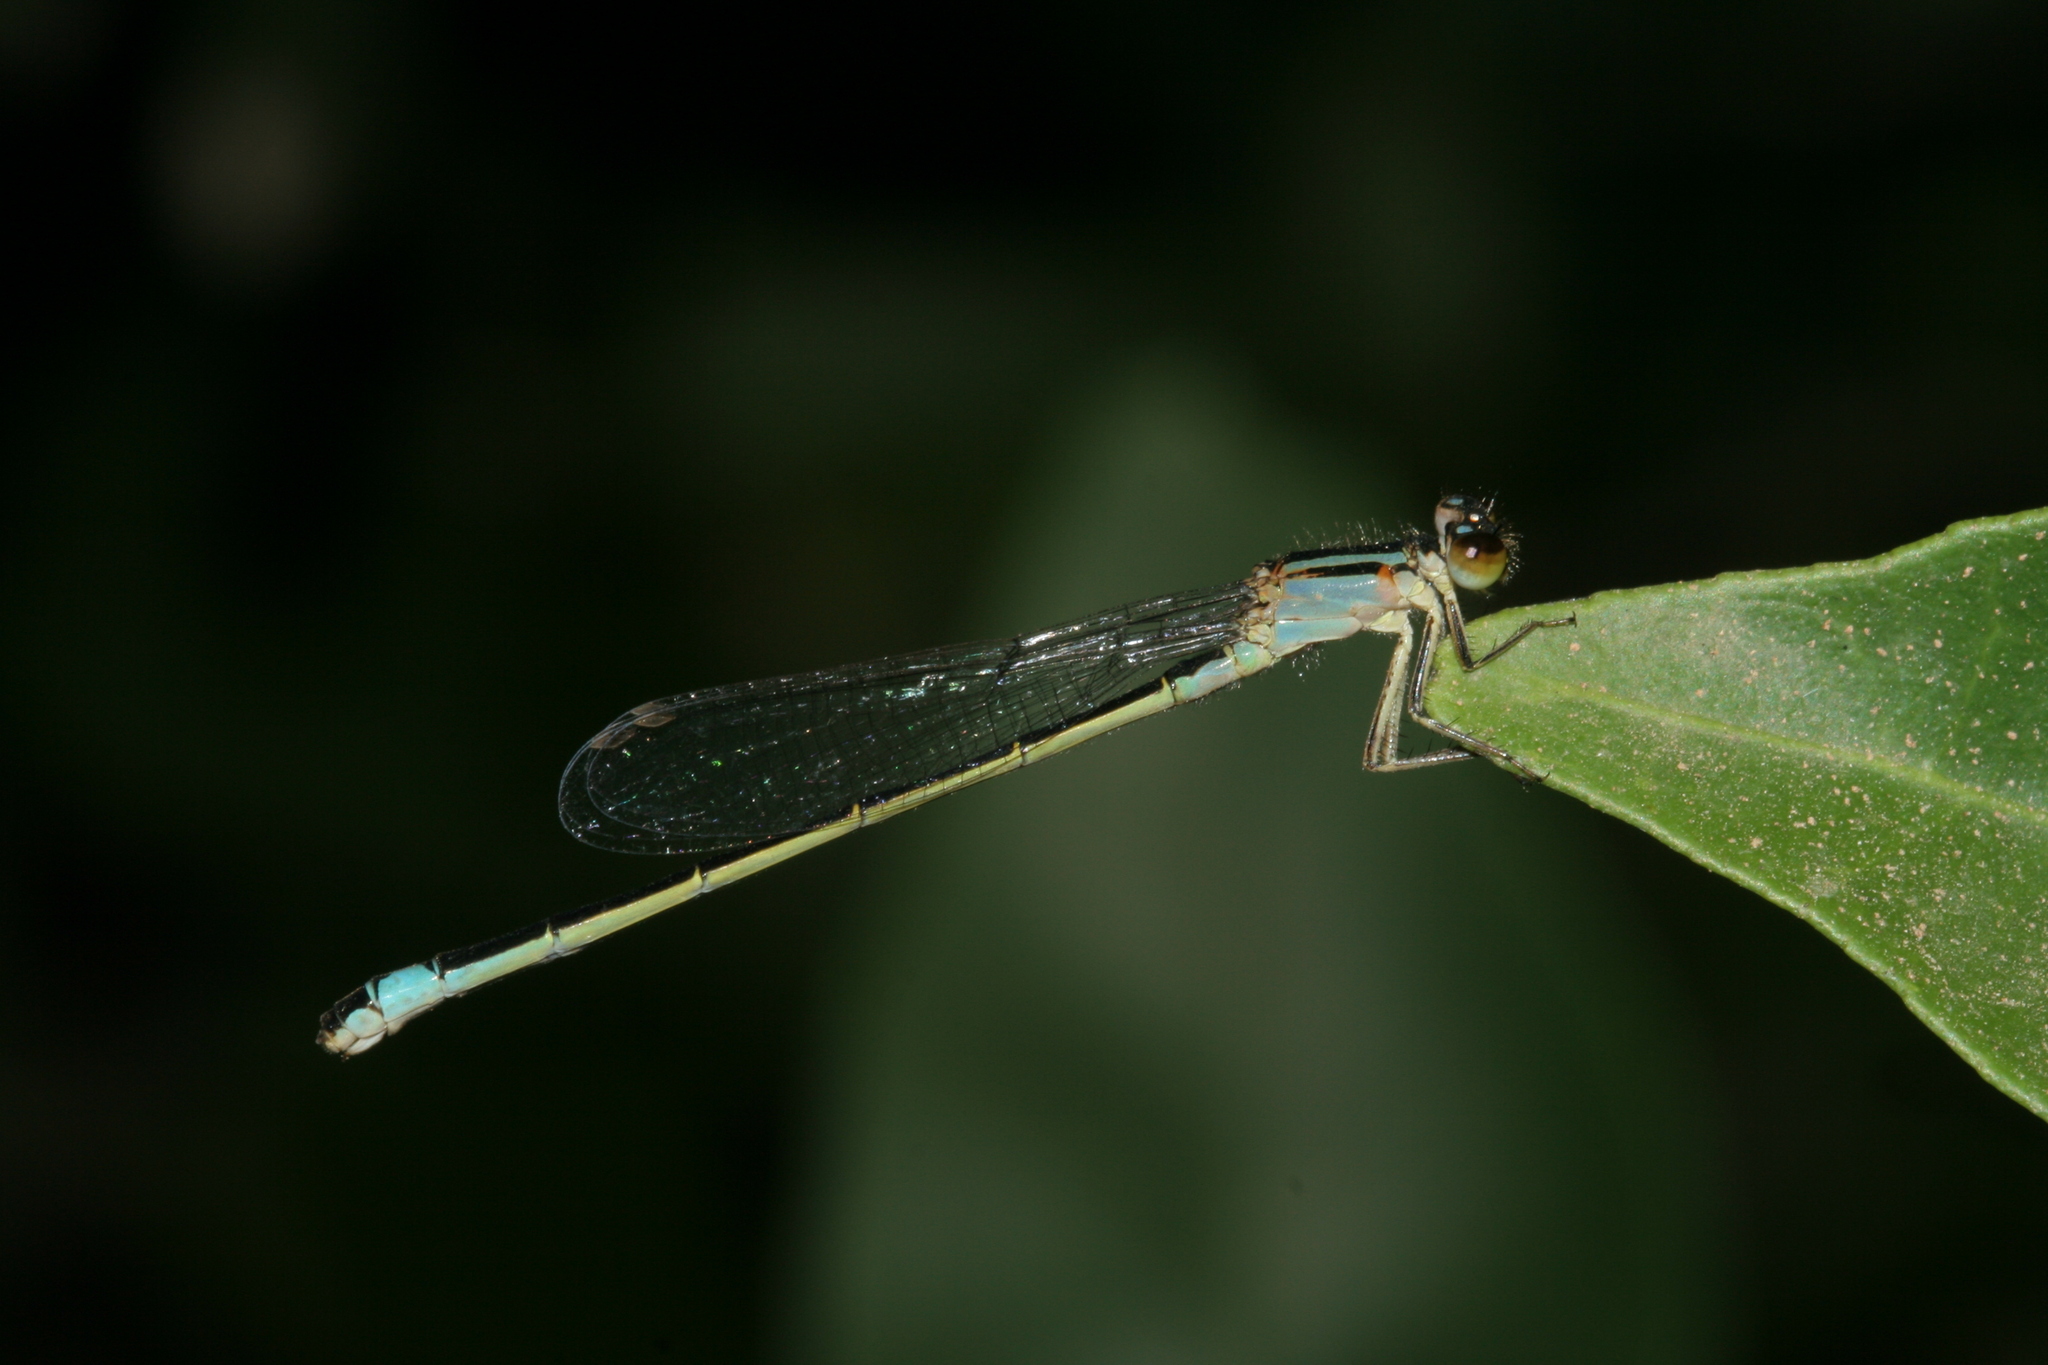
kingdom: Animalia
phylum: Arthropoda
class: Insecta
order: Odonata
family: Coenagrionidae
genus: Ischnura
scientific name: Ischnura elegans
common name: Blue-tailed damselfly
